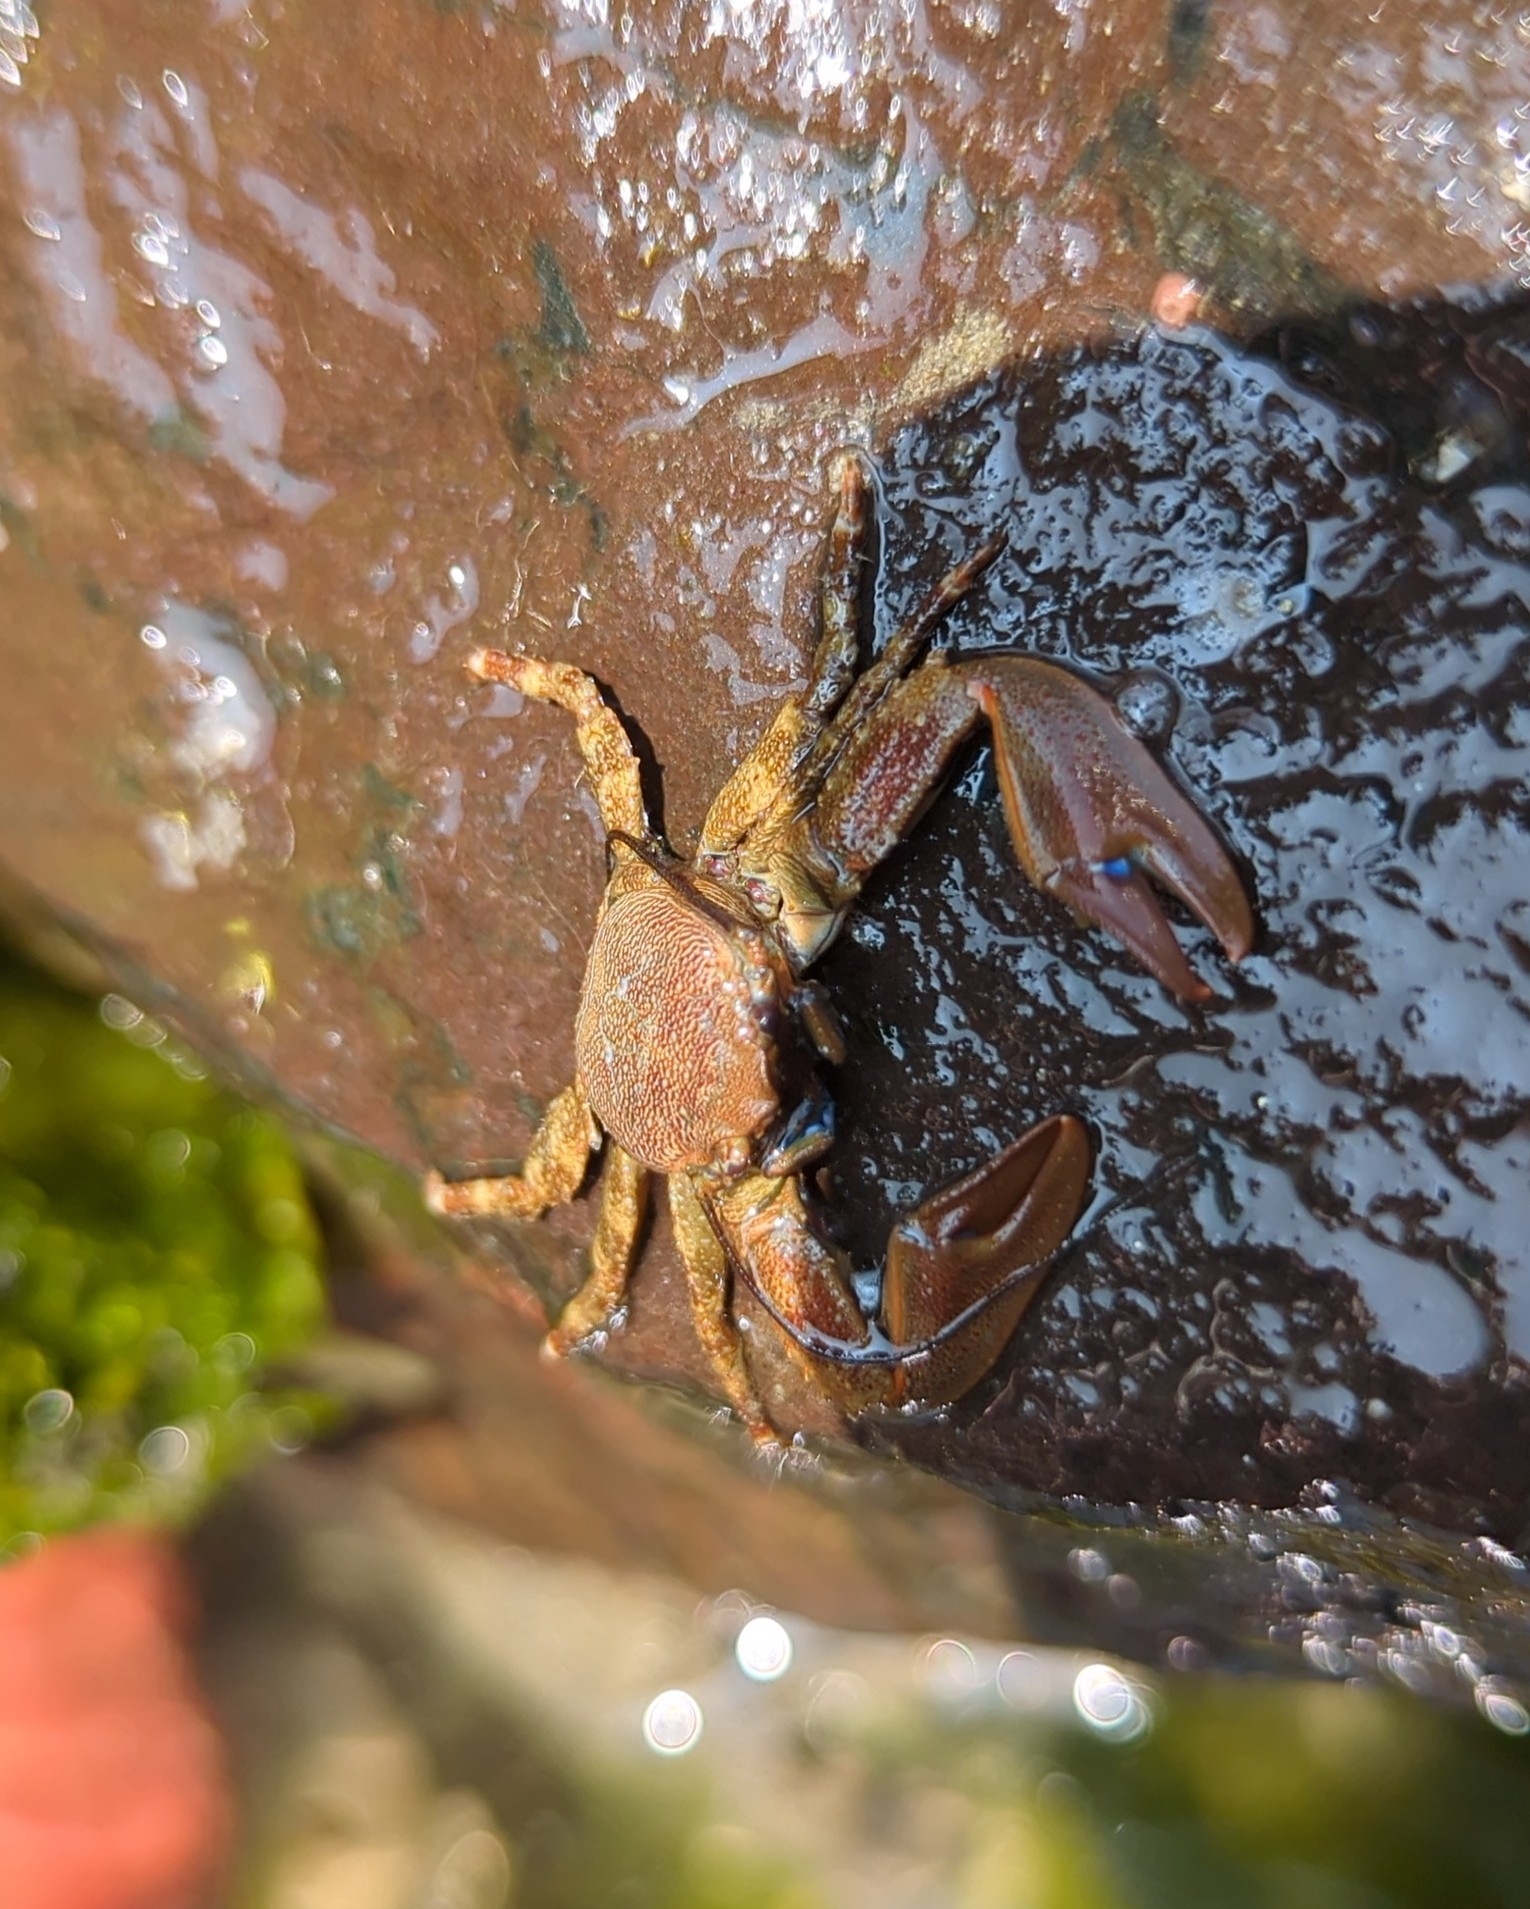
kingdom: Animalia
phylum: Arthropoda
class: Malacostraca
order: Decapoda
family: Porcellanidae
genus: Petrolisthes
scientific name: Petrolisthes eriomerus
